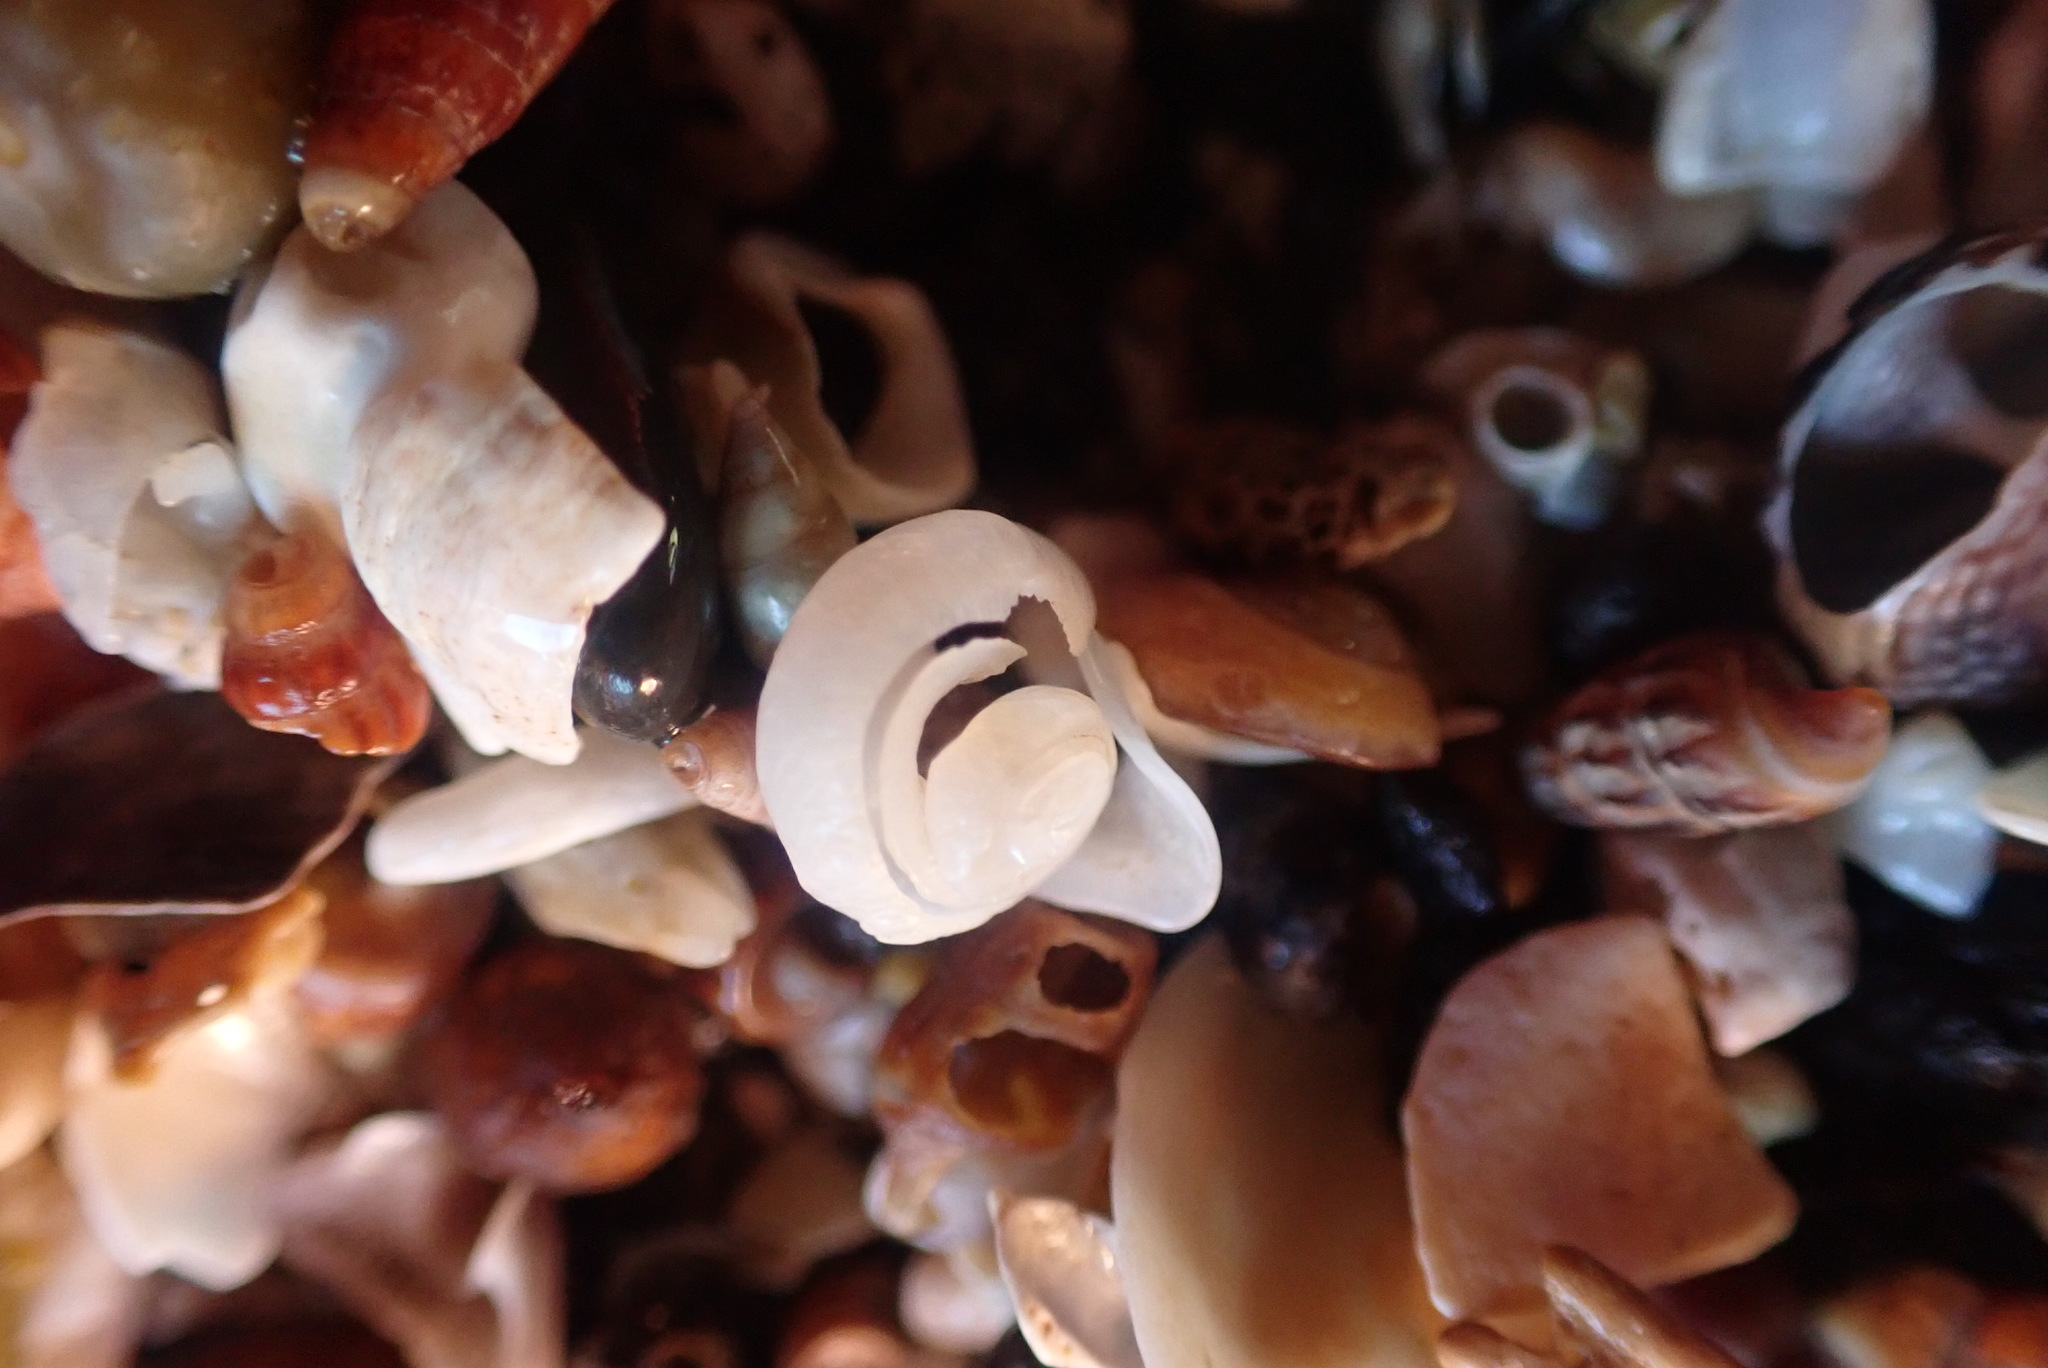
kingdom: Animalia
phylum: Mollusca
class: Gastropoda
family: Siliquariidae
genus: Tenagodus
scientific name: Tenagodus weldii
